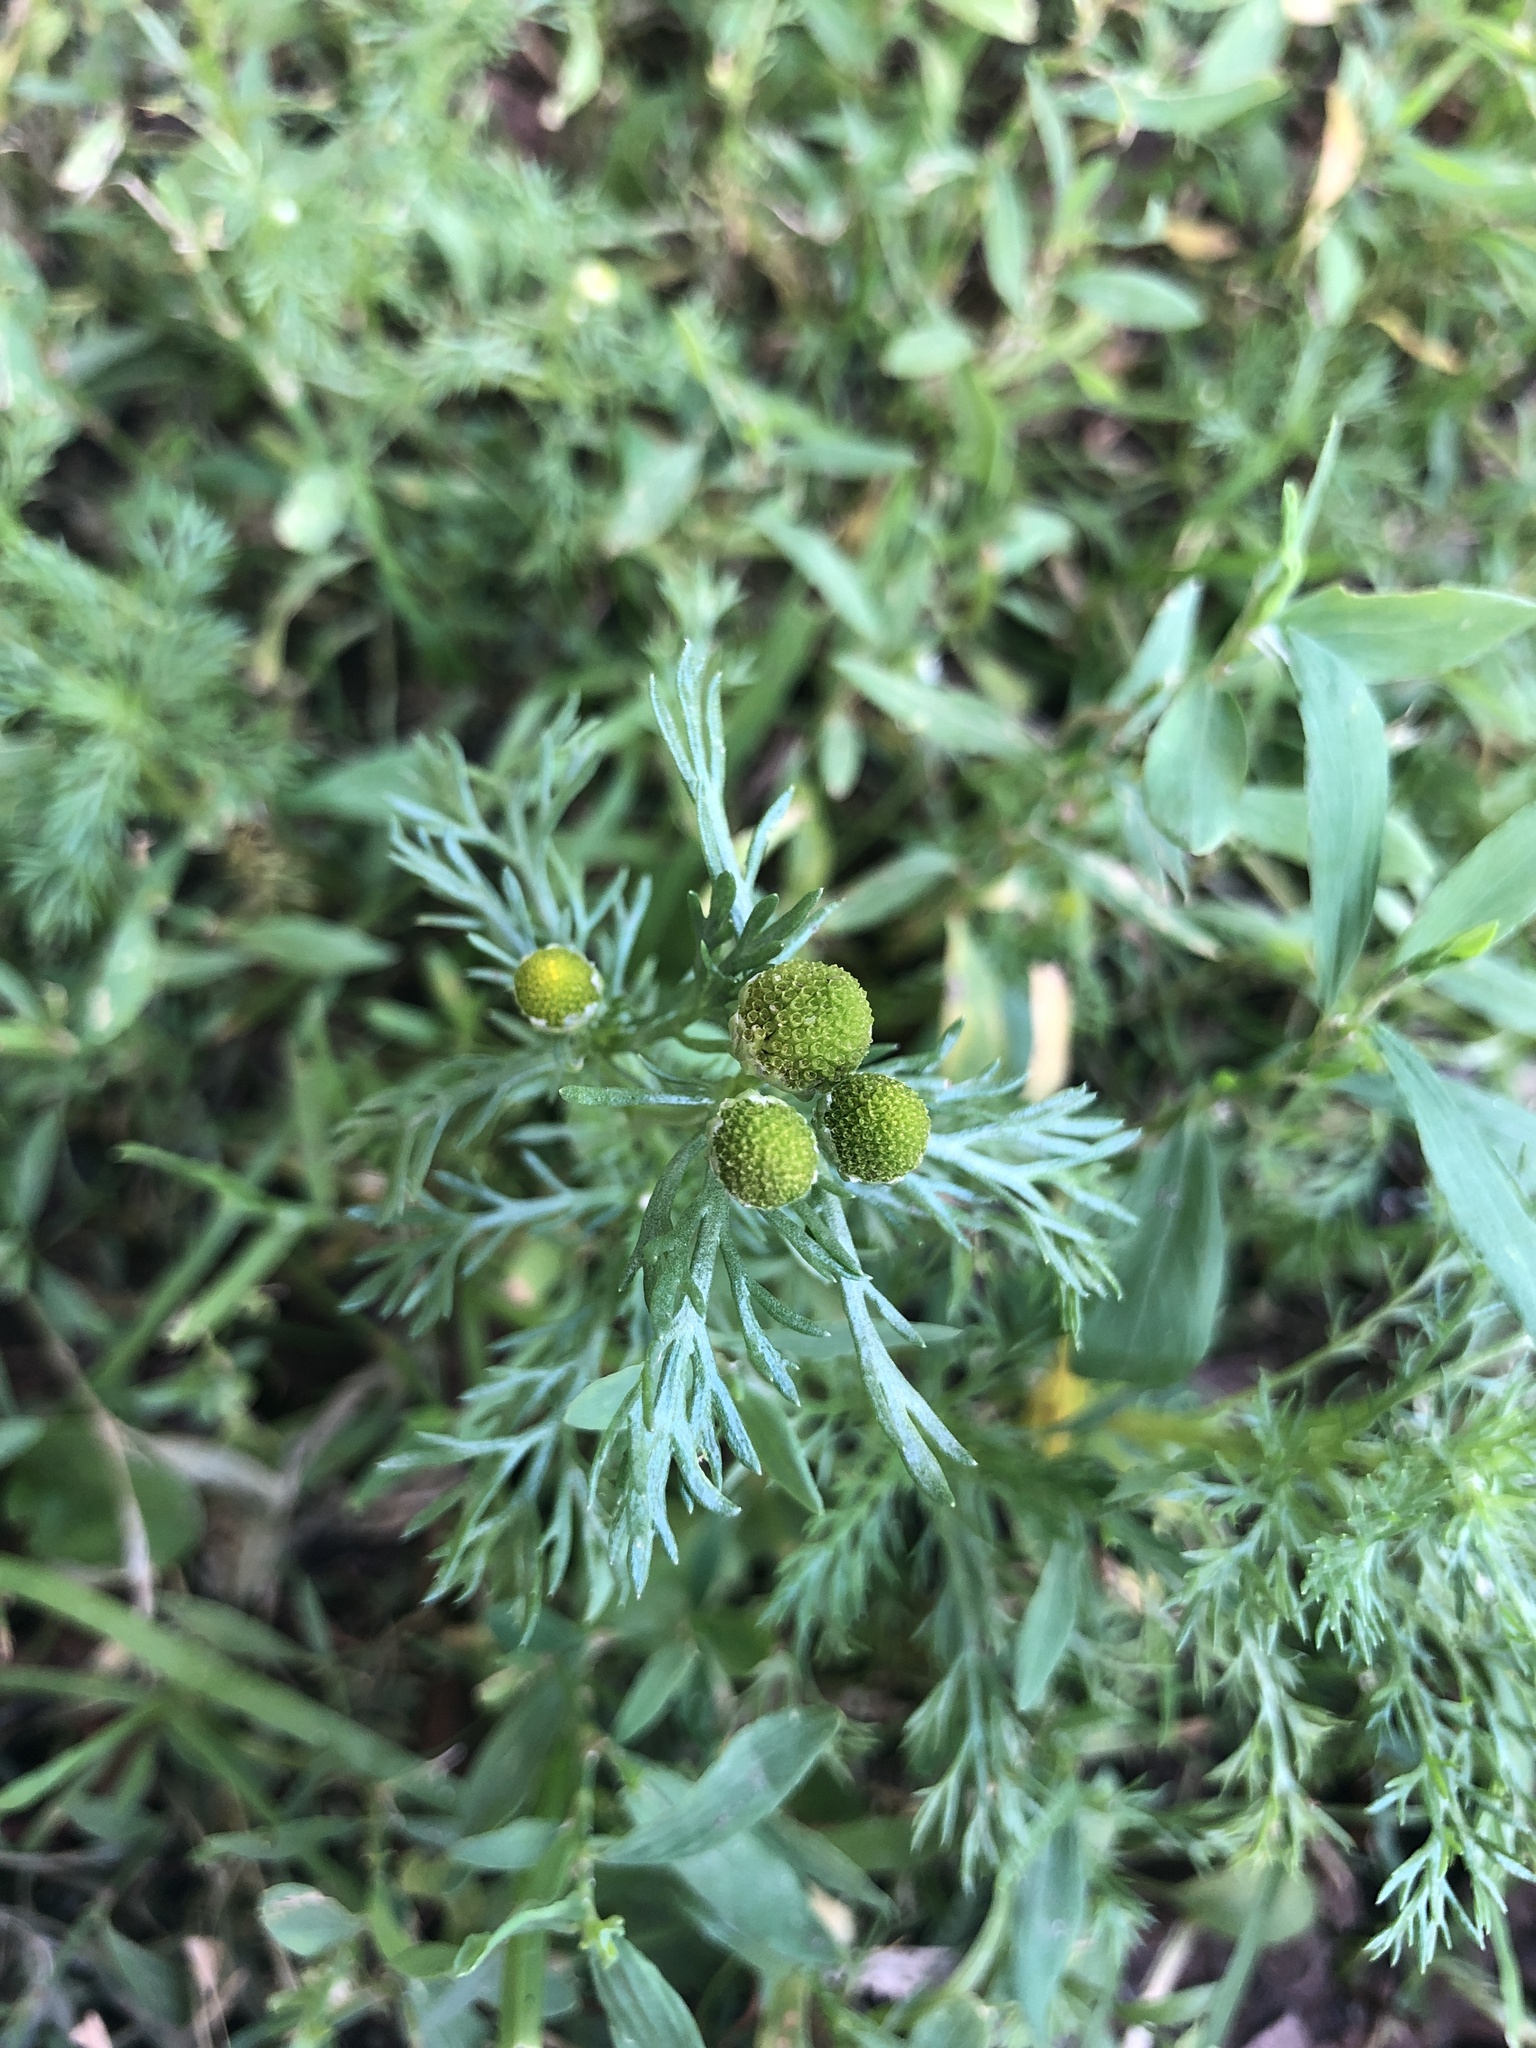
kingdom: Plantae
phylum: Tracheophyta
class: Magnoliopsida
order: Asterales
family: Asteraceae
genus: Matricaria
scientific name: Matricaria discoidea
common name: Disc mayweed
